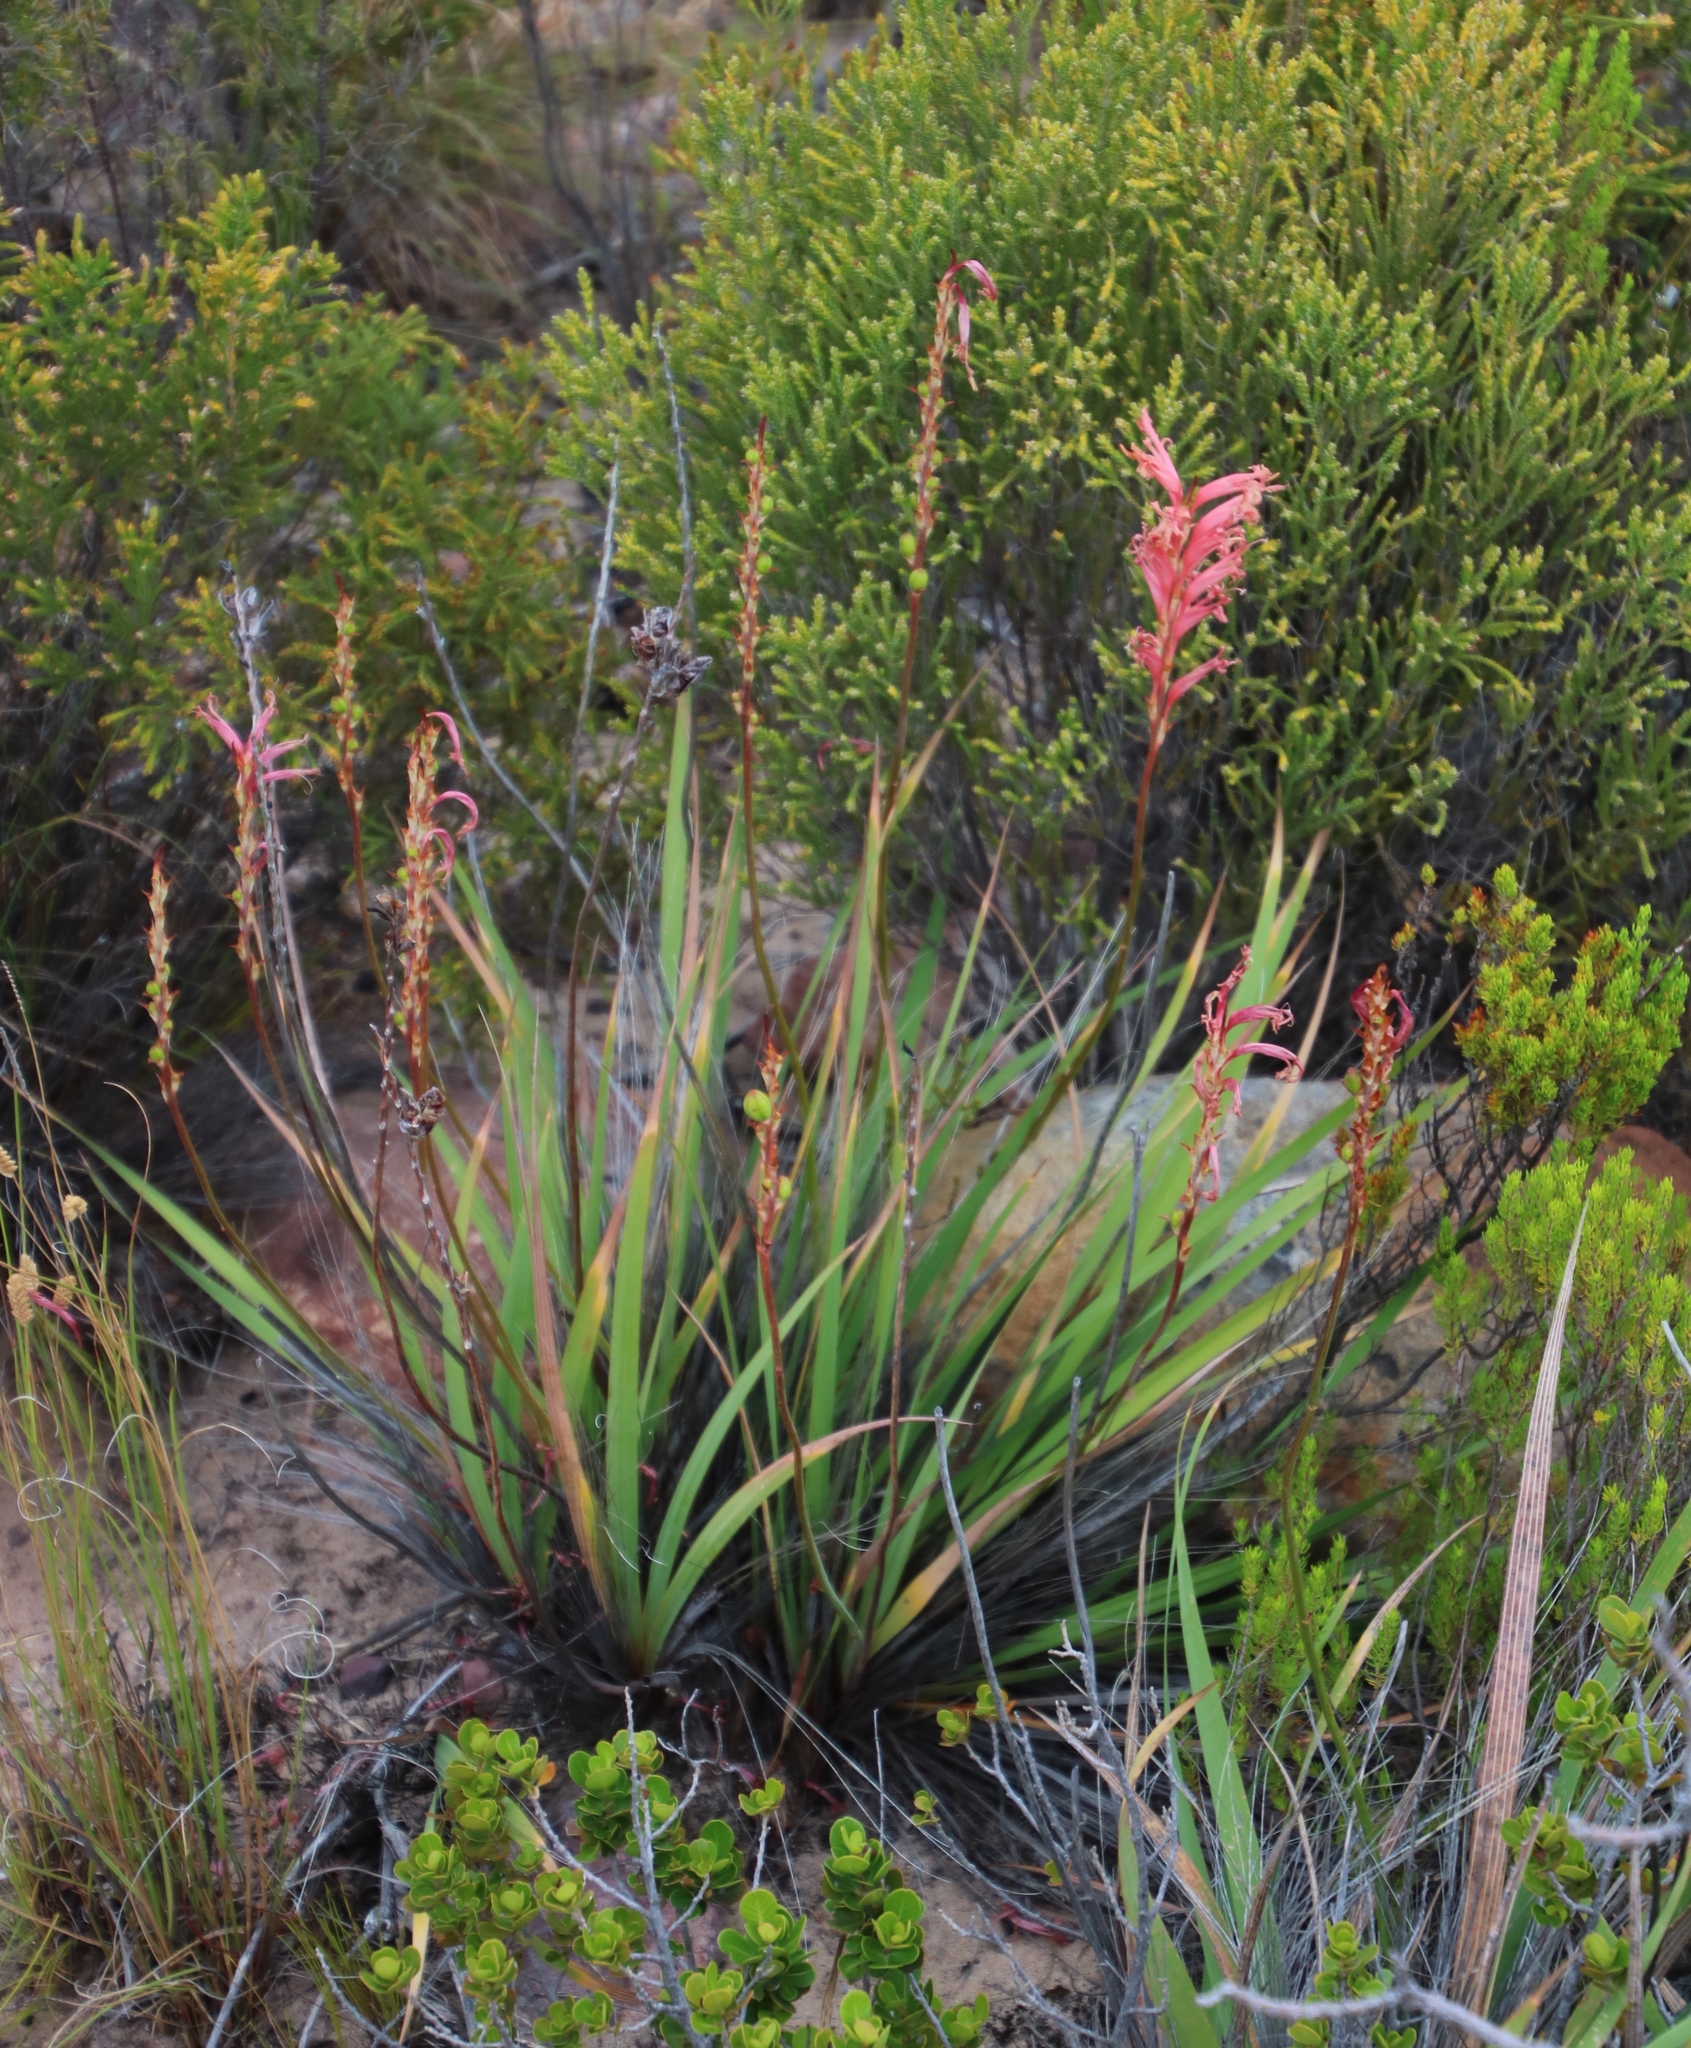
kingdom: Plantae
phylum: Tracheophyta
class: Liliopsida
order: Asparagales
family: Iridaceae
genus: Tritoniopsis
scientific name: Tritoniopsis antholyza
